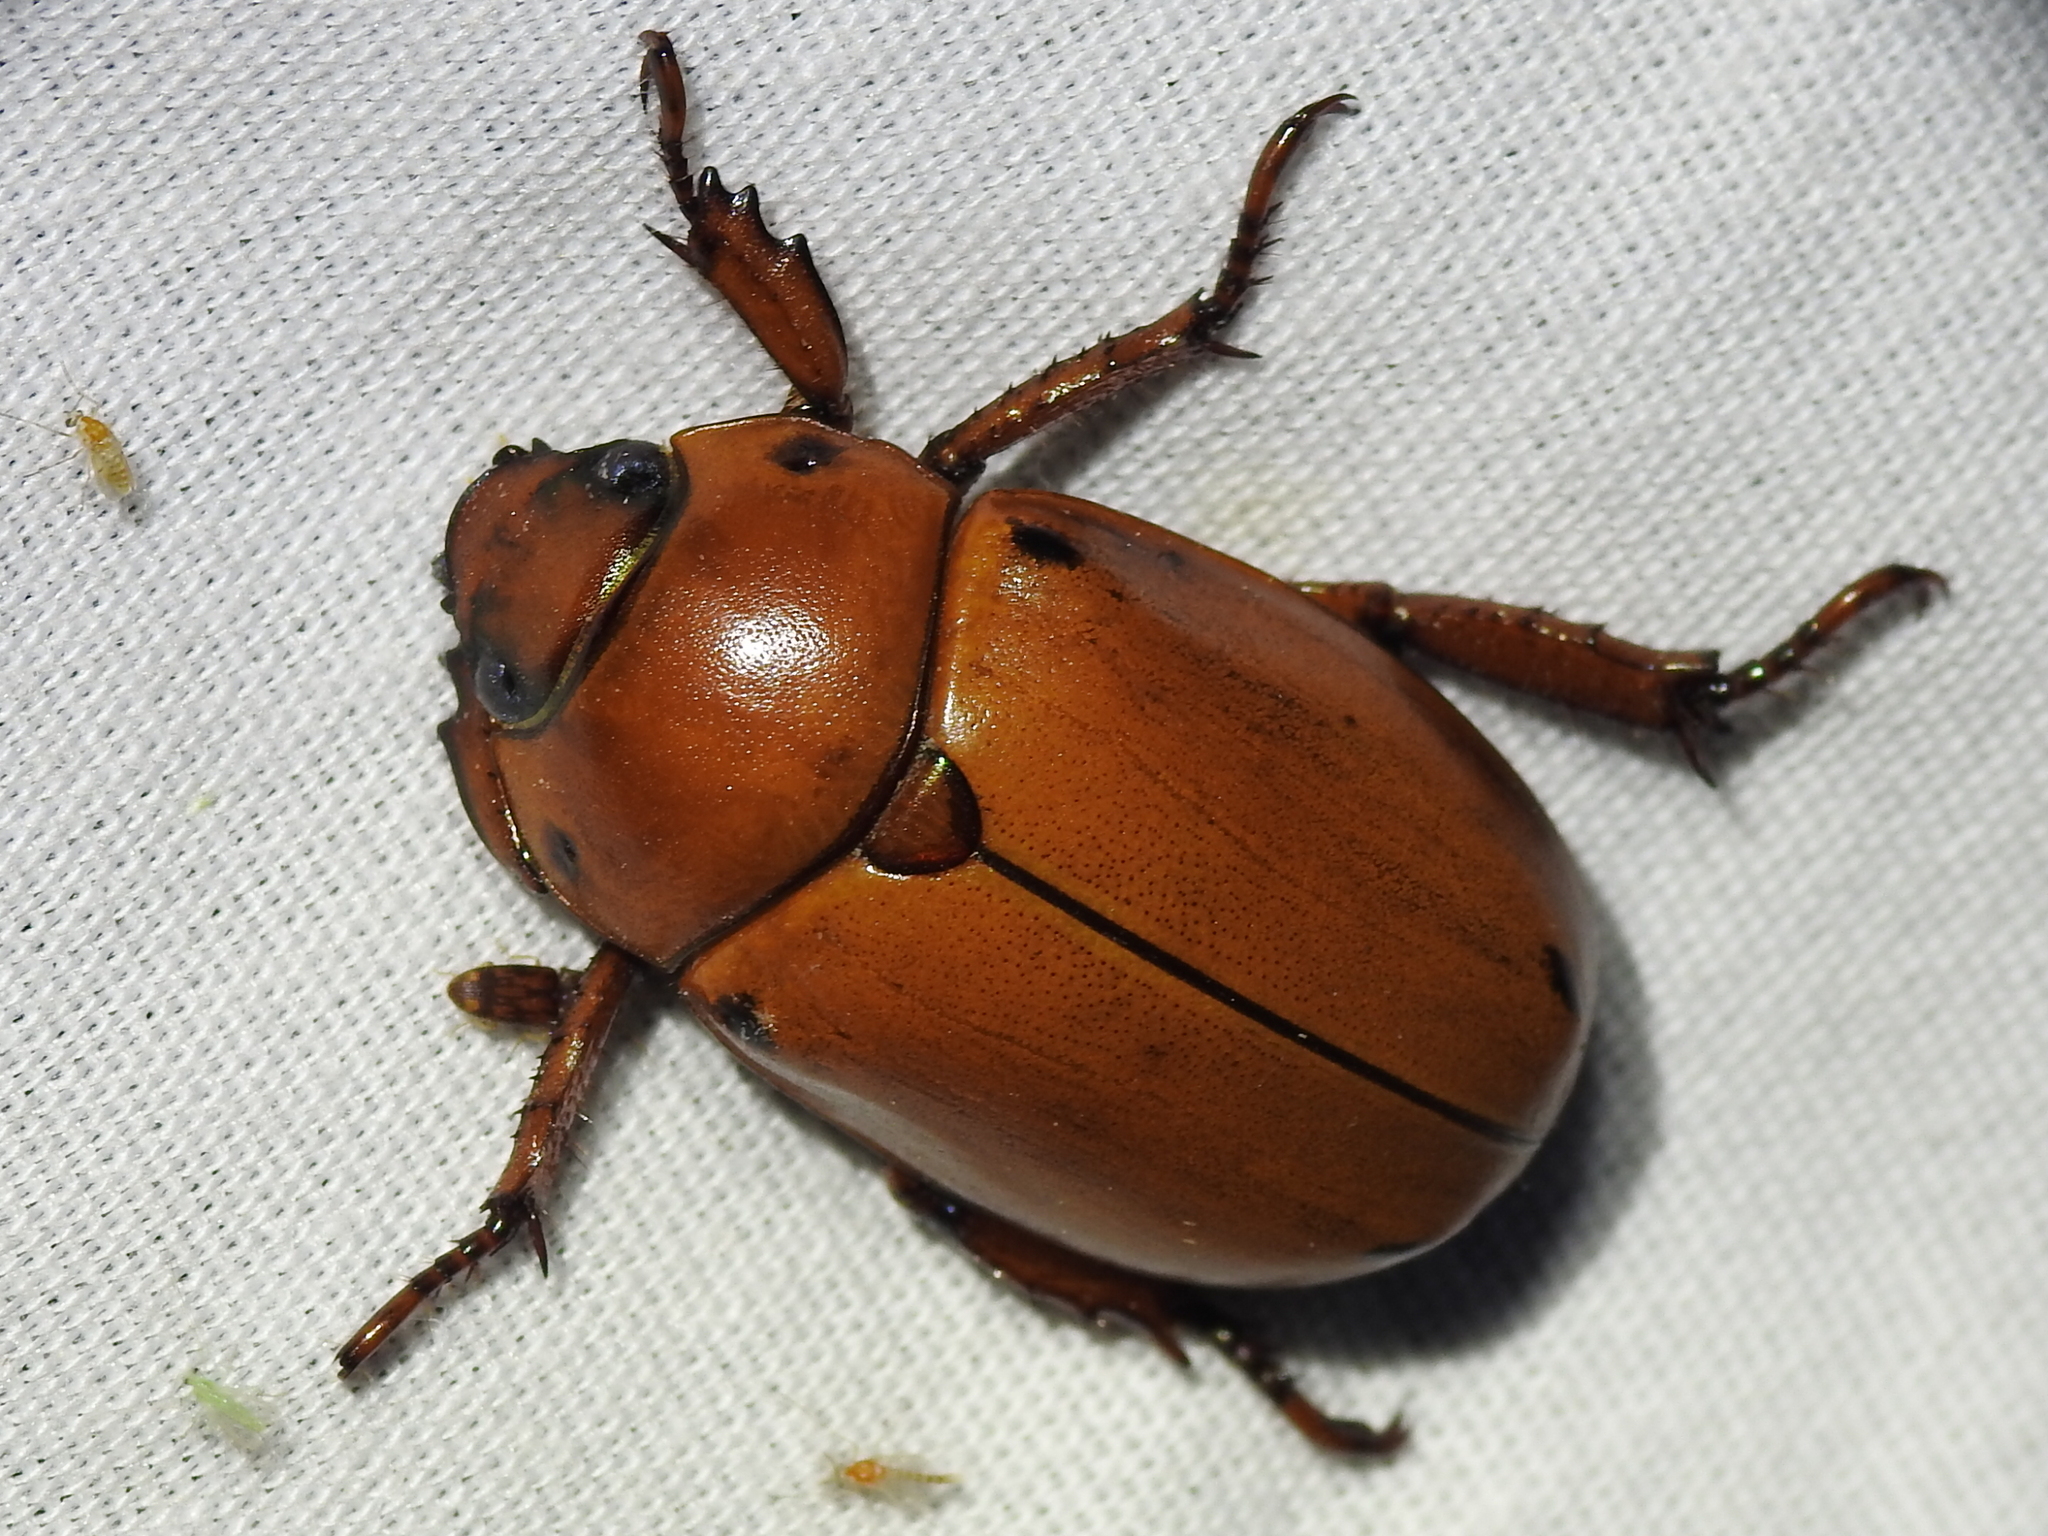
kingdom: Animalia
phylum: Arthropoda
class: Insecta
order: Coleoptera
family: Scarabaeidae
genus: Pelidnota
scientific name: Pelidnota punctata
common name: Grapevine beetle
